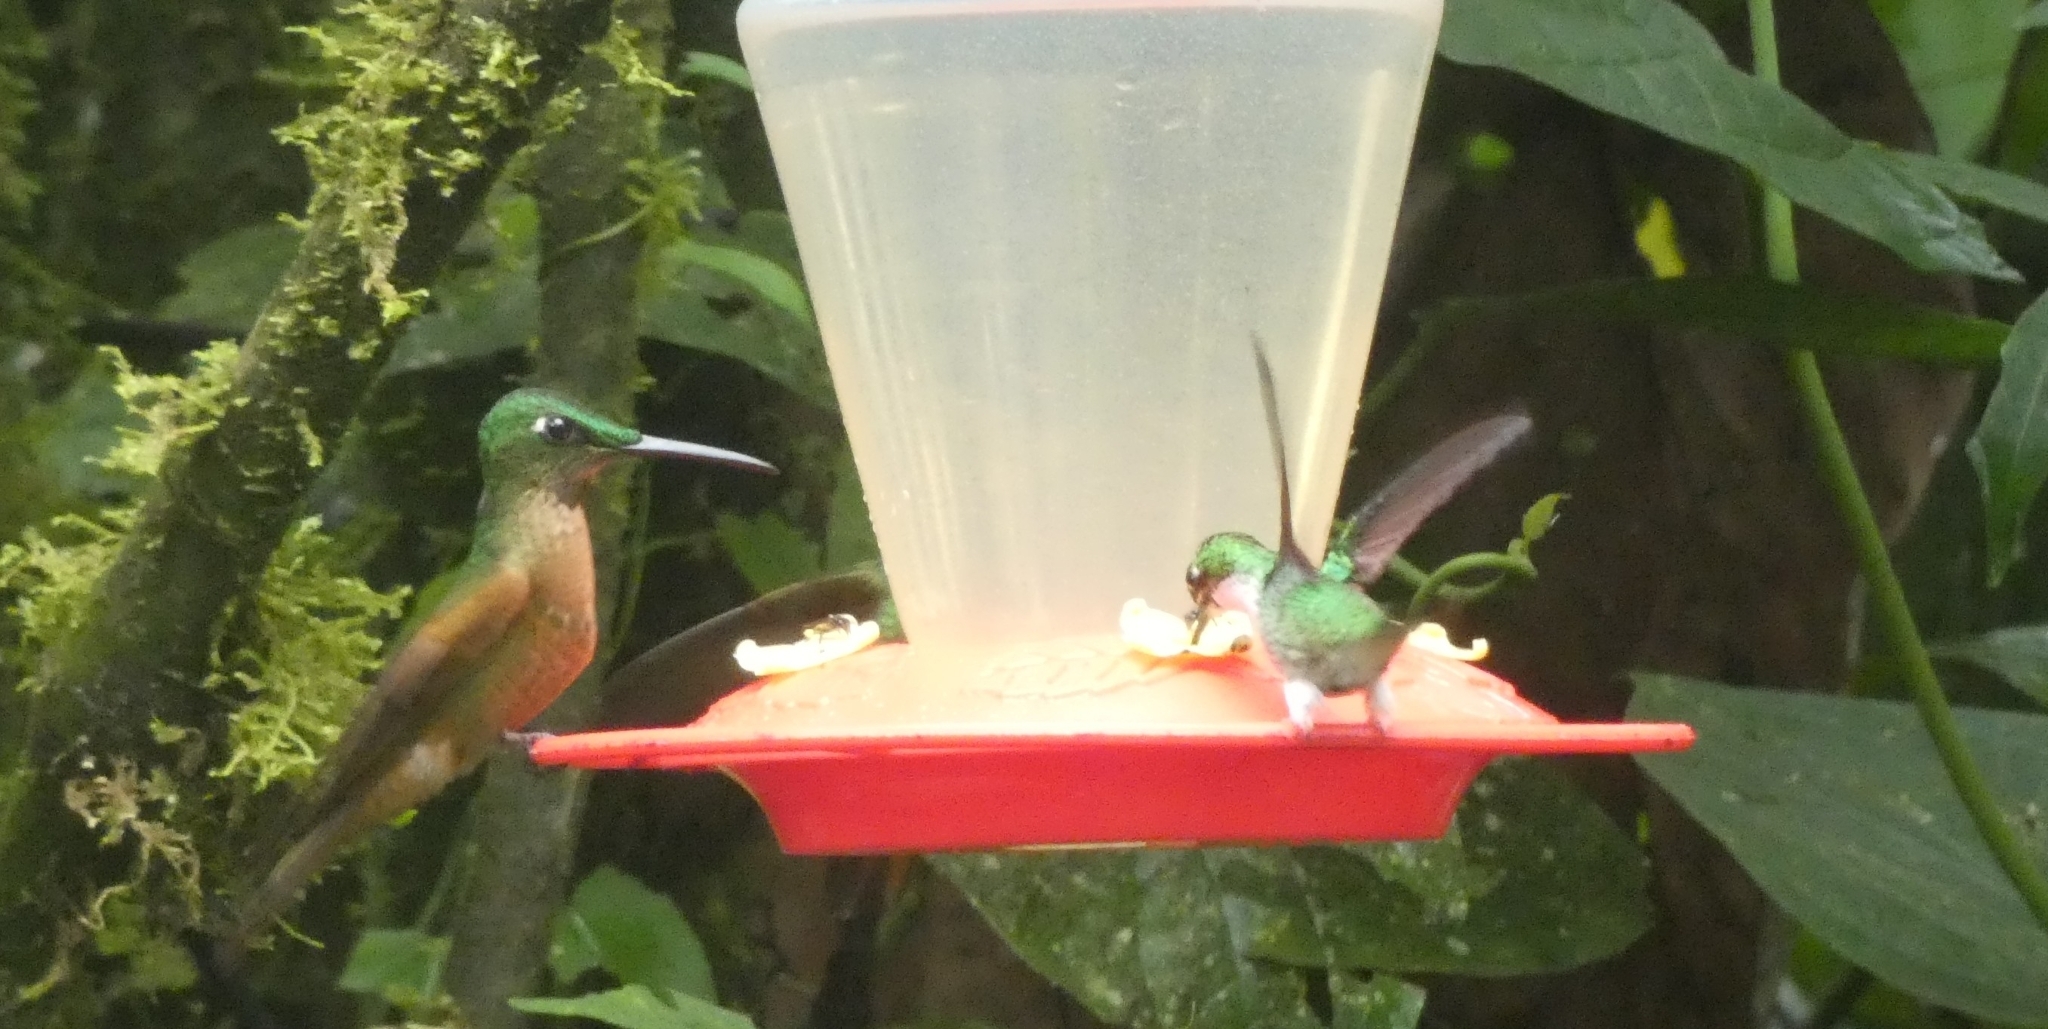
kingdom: Animalia
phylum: Chordata
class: Aves
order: Apodiformes
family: Trochilidae
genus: Heliodoxa
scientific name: Heliodoxa rubinoides
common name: Fawn-breasted brilliant
